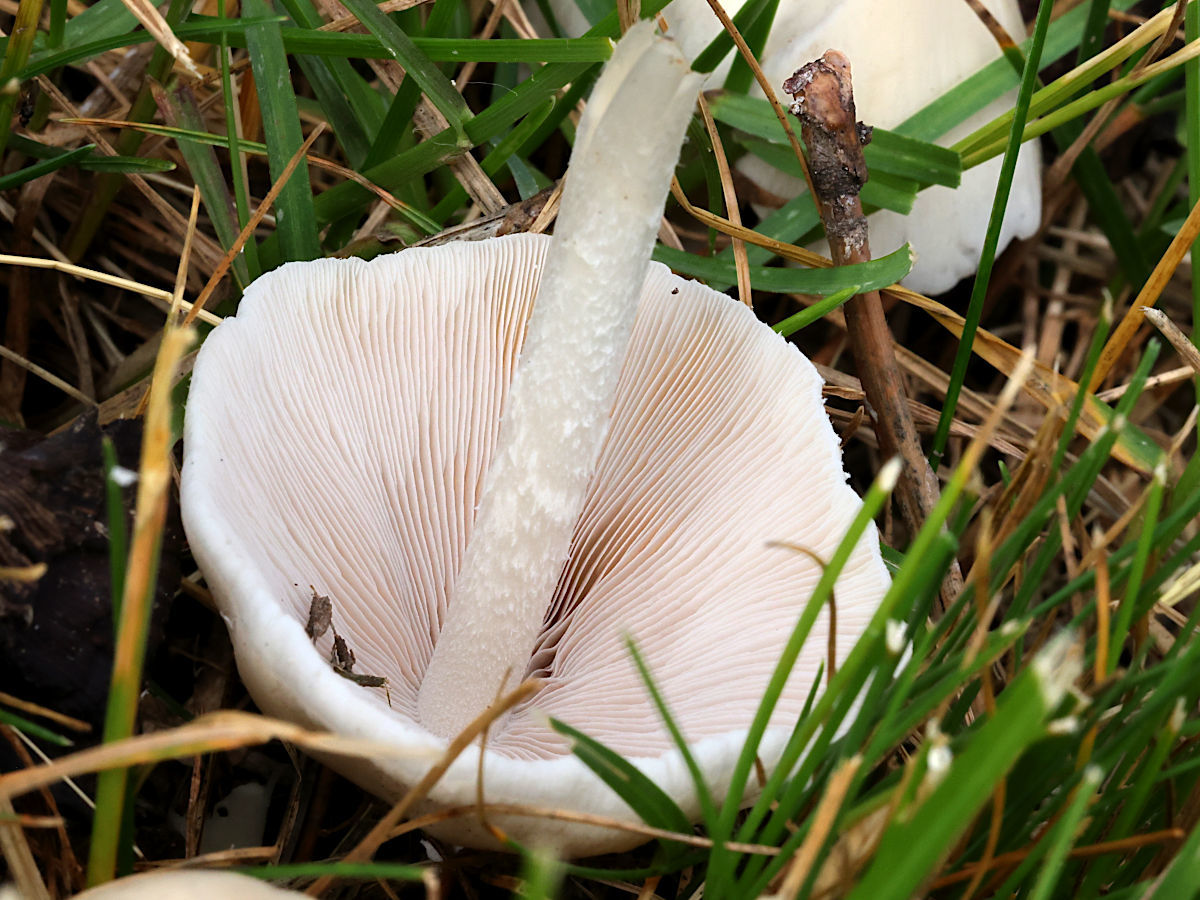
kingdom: Fungi
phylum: Basidiomycota
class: Agaricomycetes
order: Agaricales
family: Psathyrellaceae
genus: Candolleomyces
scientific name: Candolleomyces candolleanus
